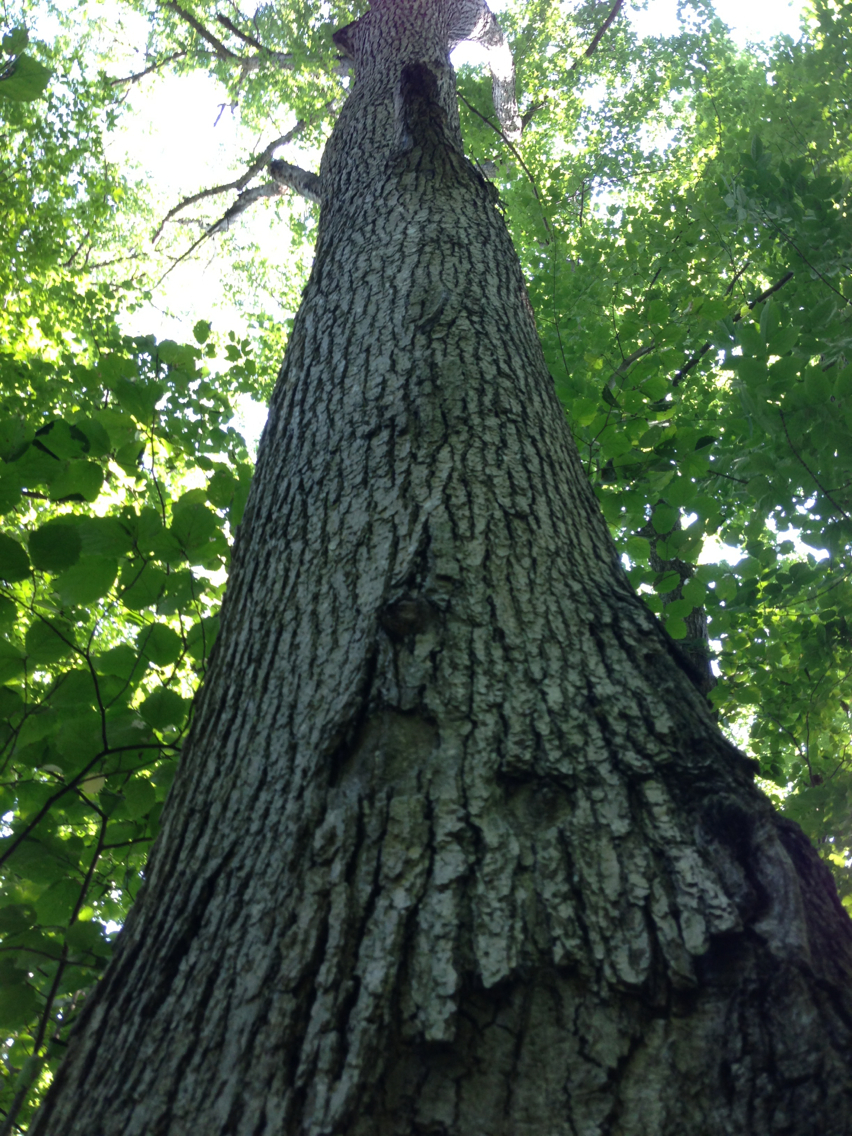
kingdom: Plantae
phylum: Tracheophyta
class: Magnoliopsida
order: Fagales
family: Fagaceae
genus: Quercus
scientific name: Quercus alba
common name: White oak
